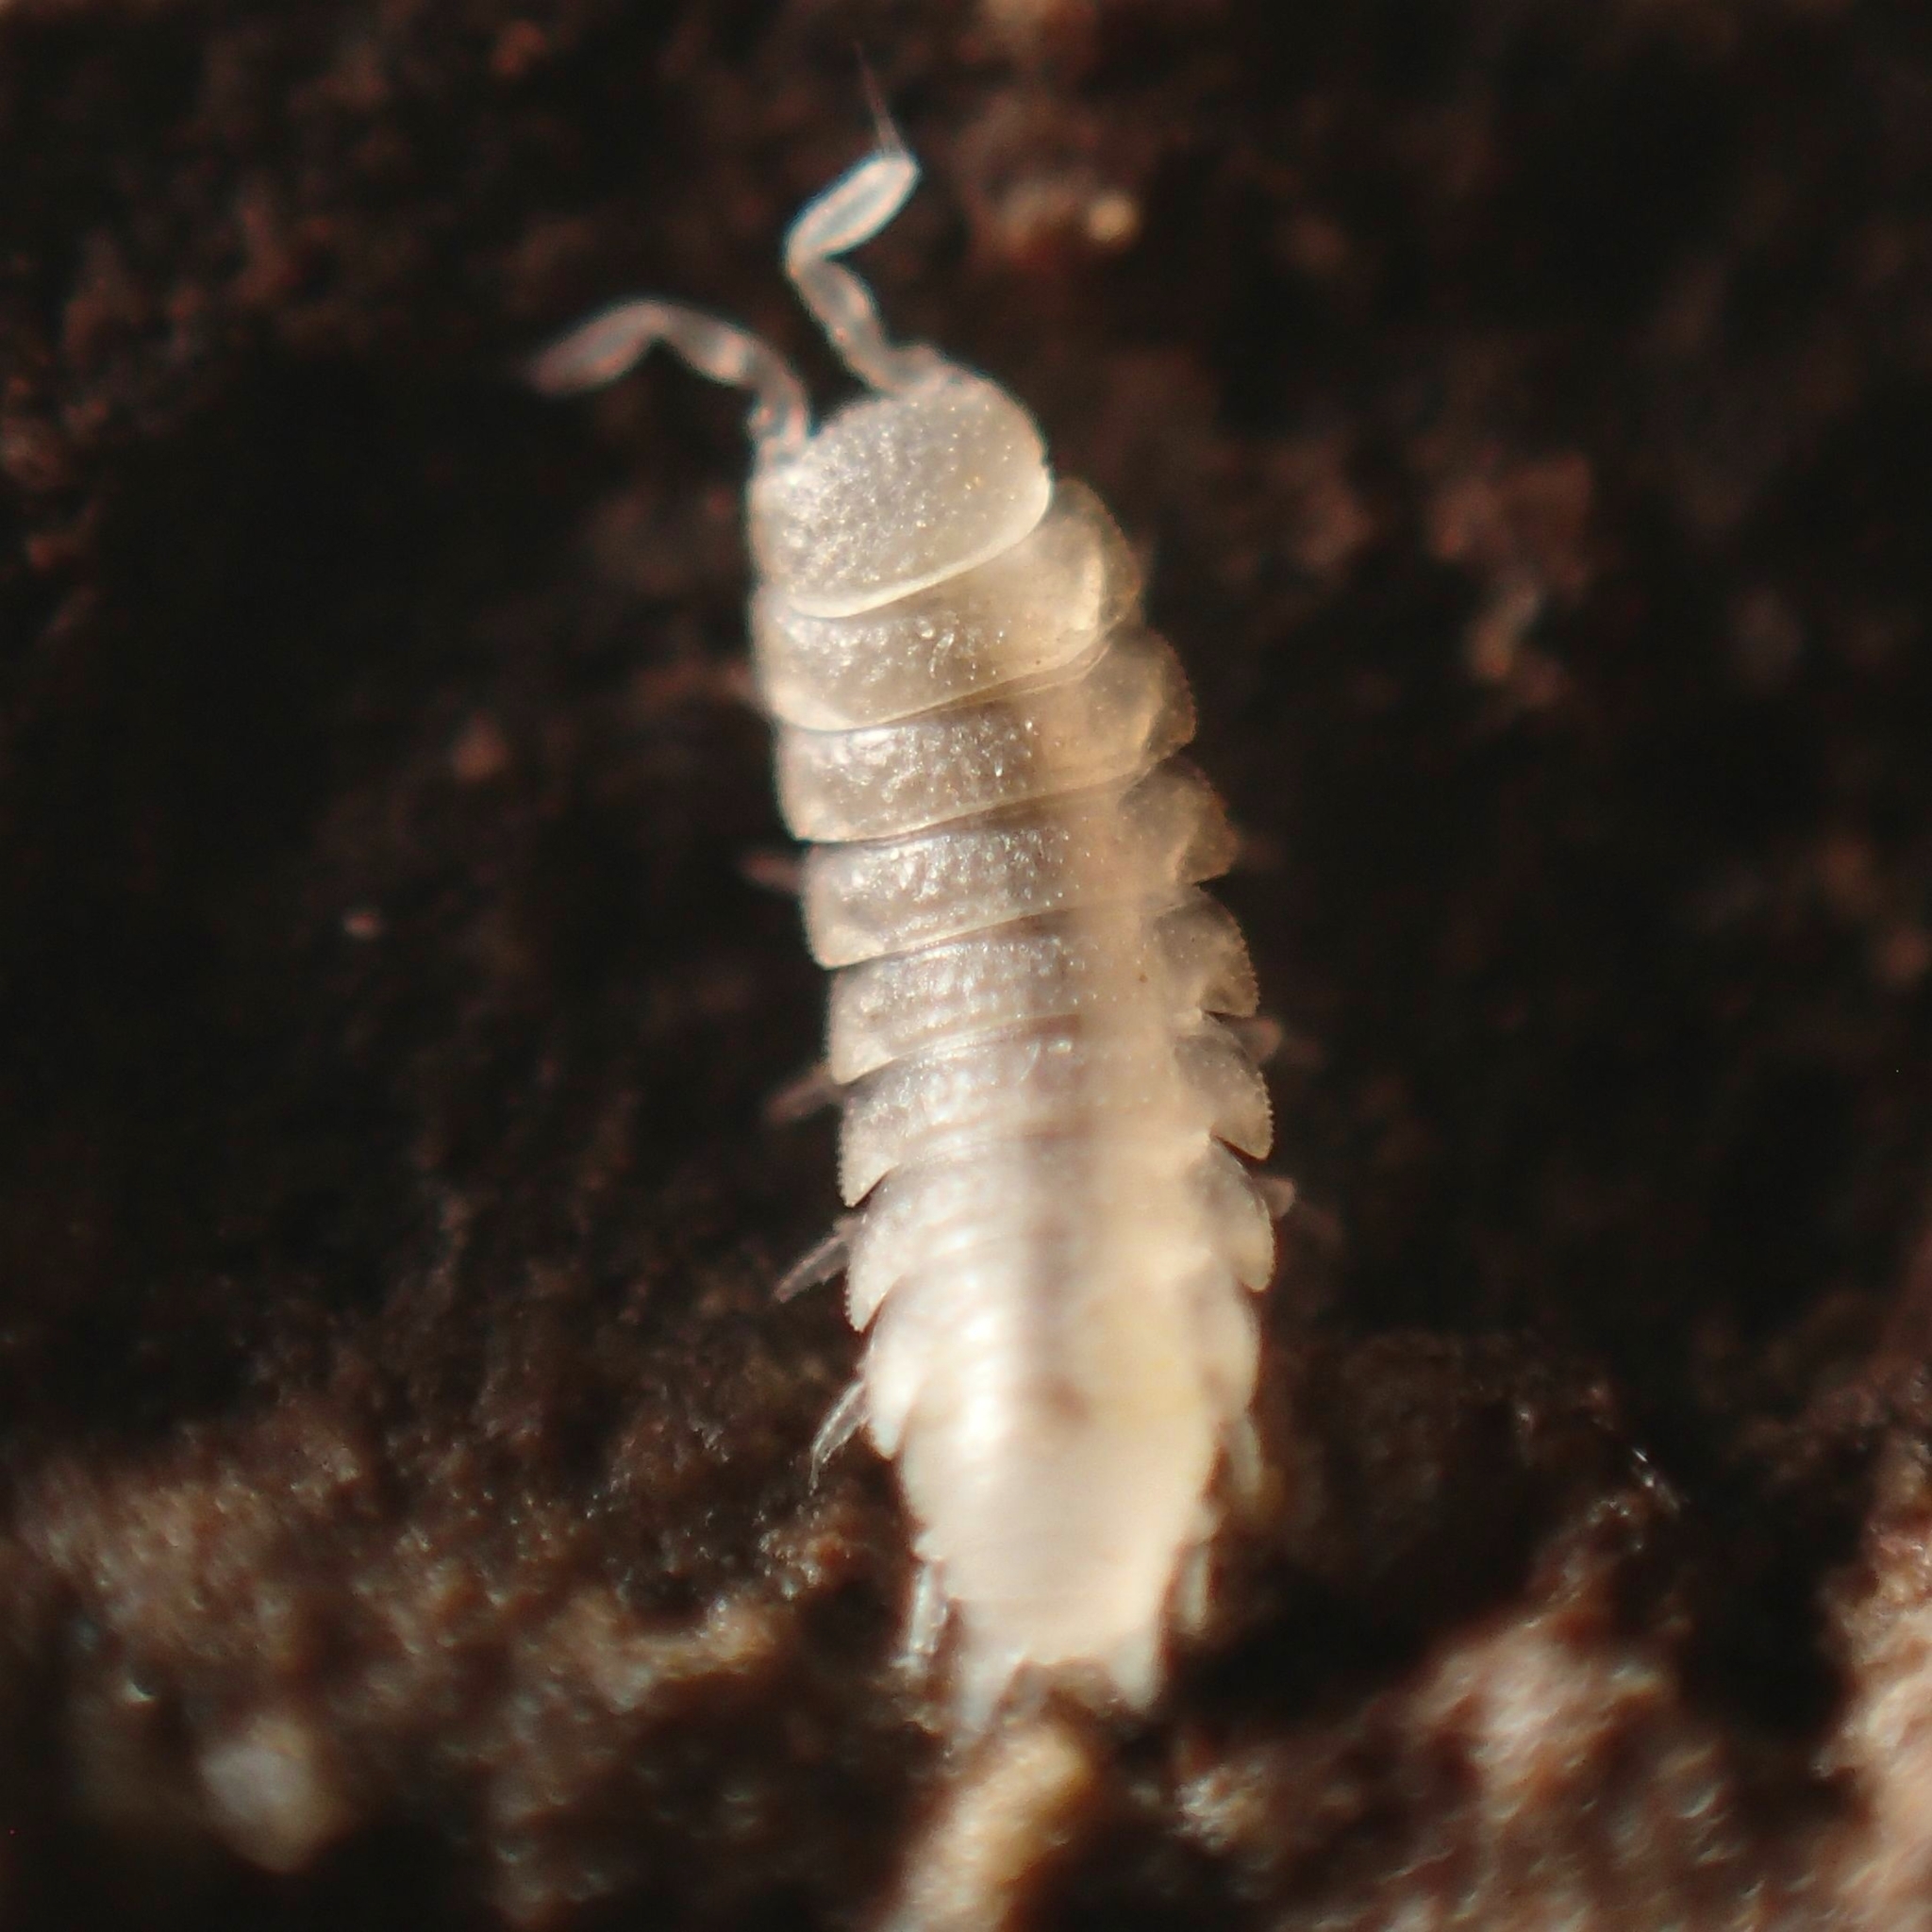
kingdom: Animalia
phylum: Arthropoda
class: Malacostraca
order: Isopoda
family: Trichoniscidae
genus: Brackenridgia
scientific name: Brackenridgia heroldi
